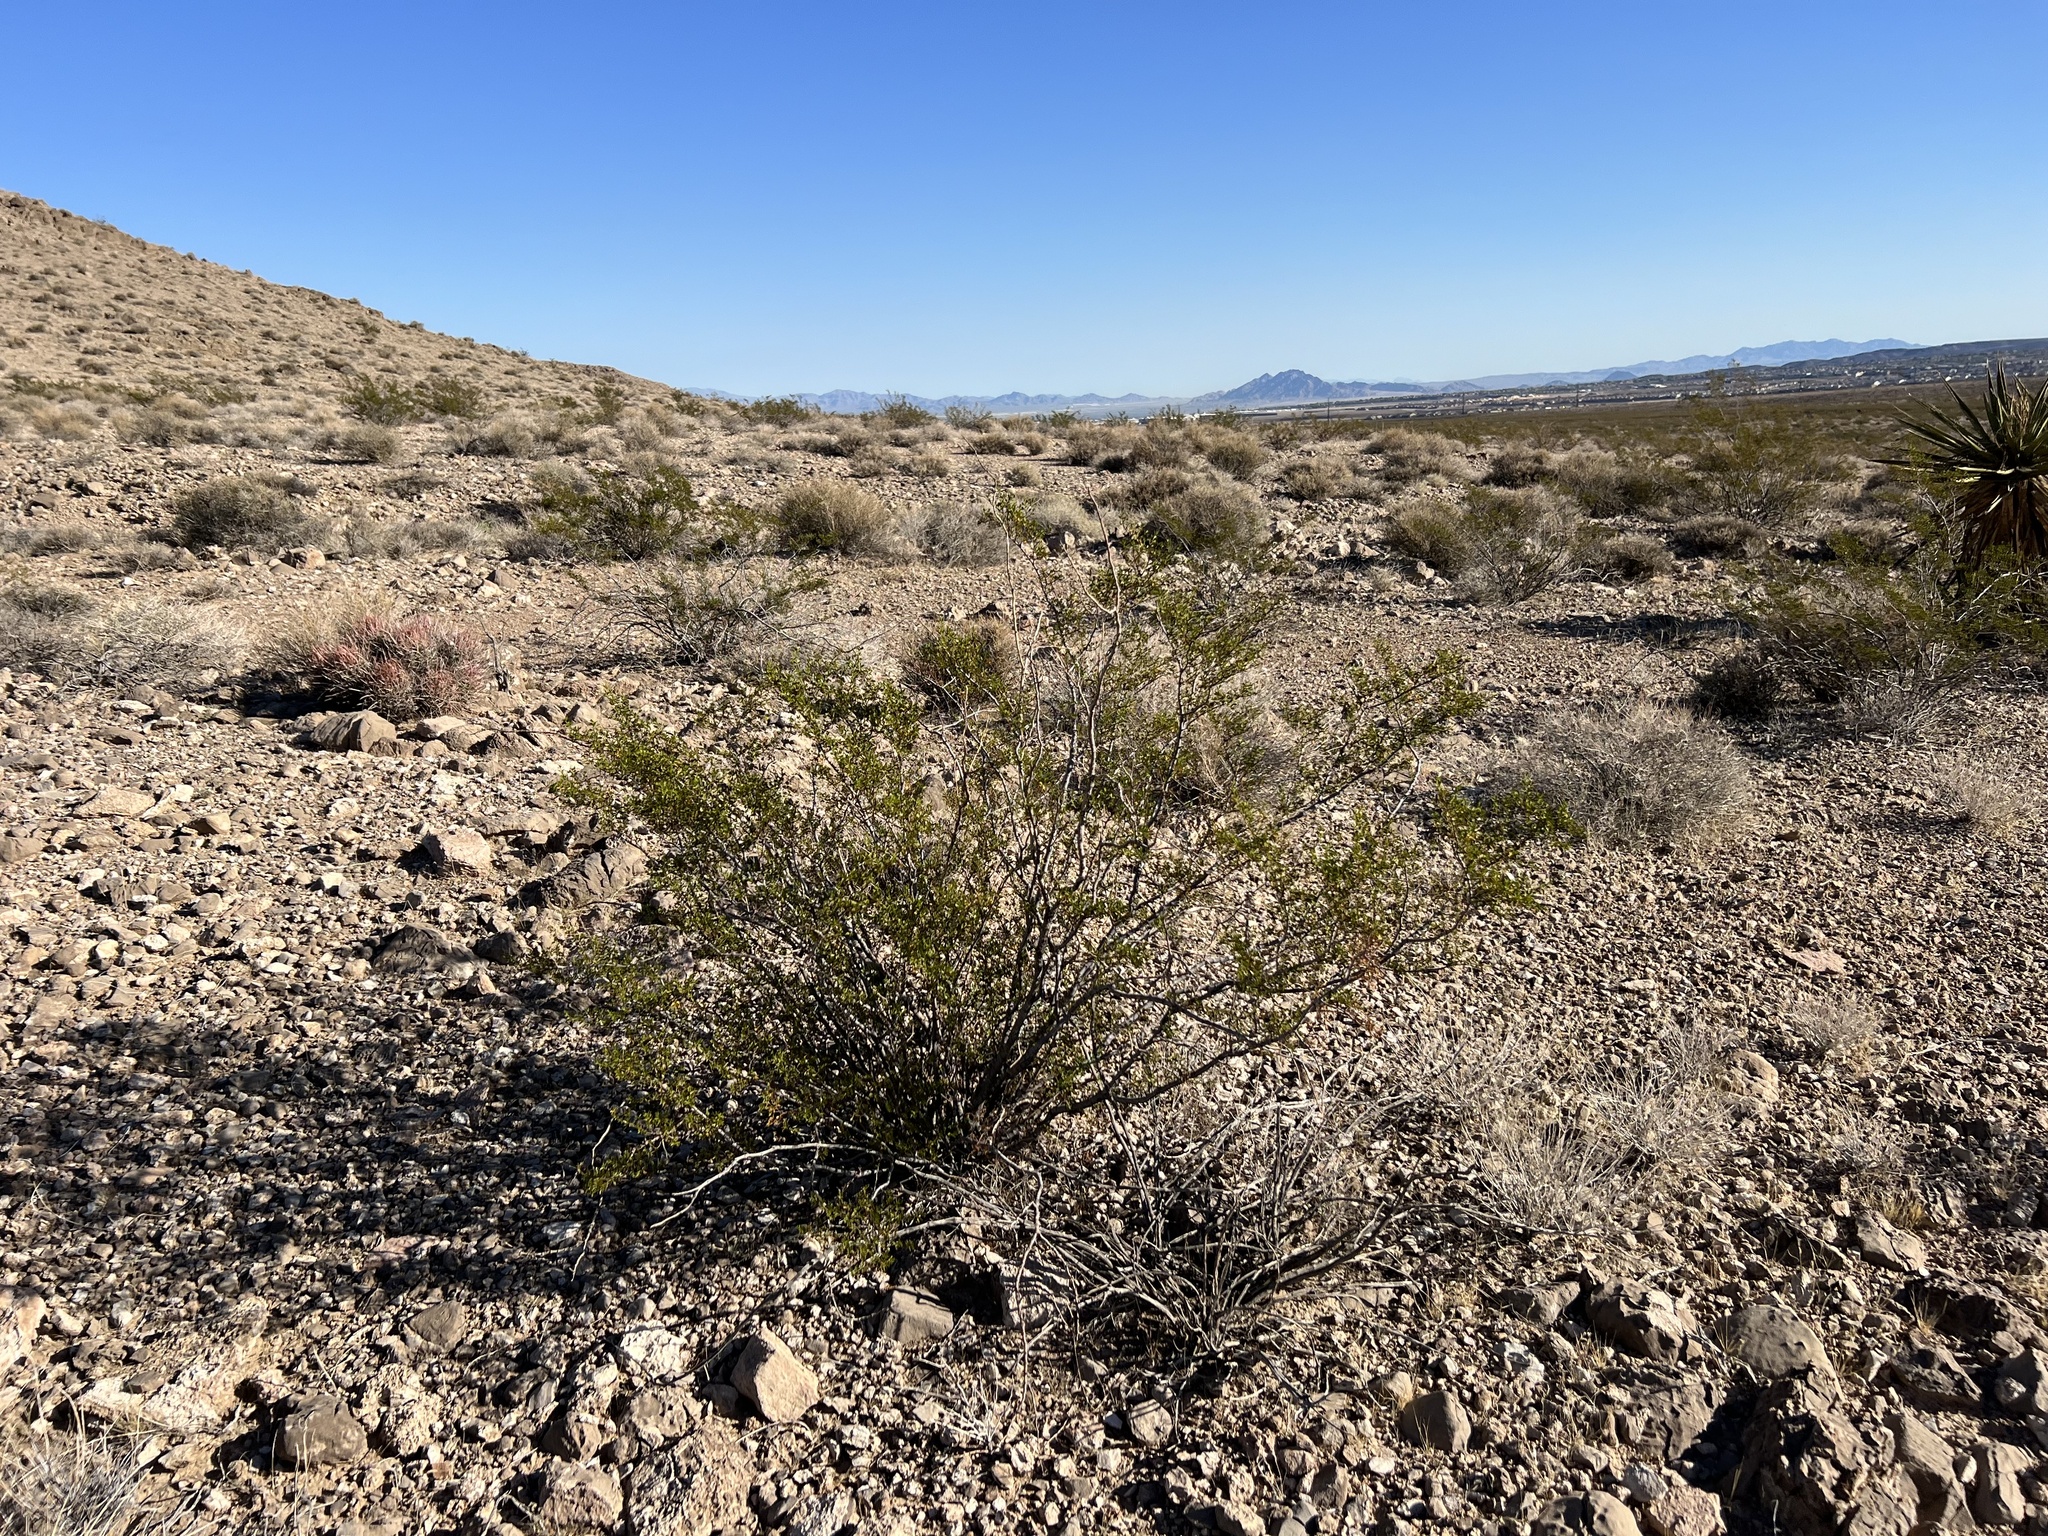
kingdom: Plantae
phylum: Tracheophyta
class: Magnoliopsida
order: Zygophyllales
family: Zygophyllaceae
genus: Larrea
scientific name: Larrea tridentata
